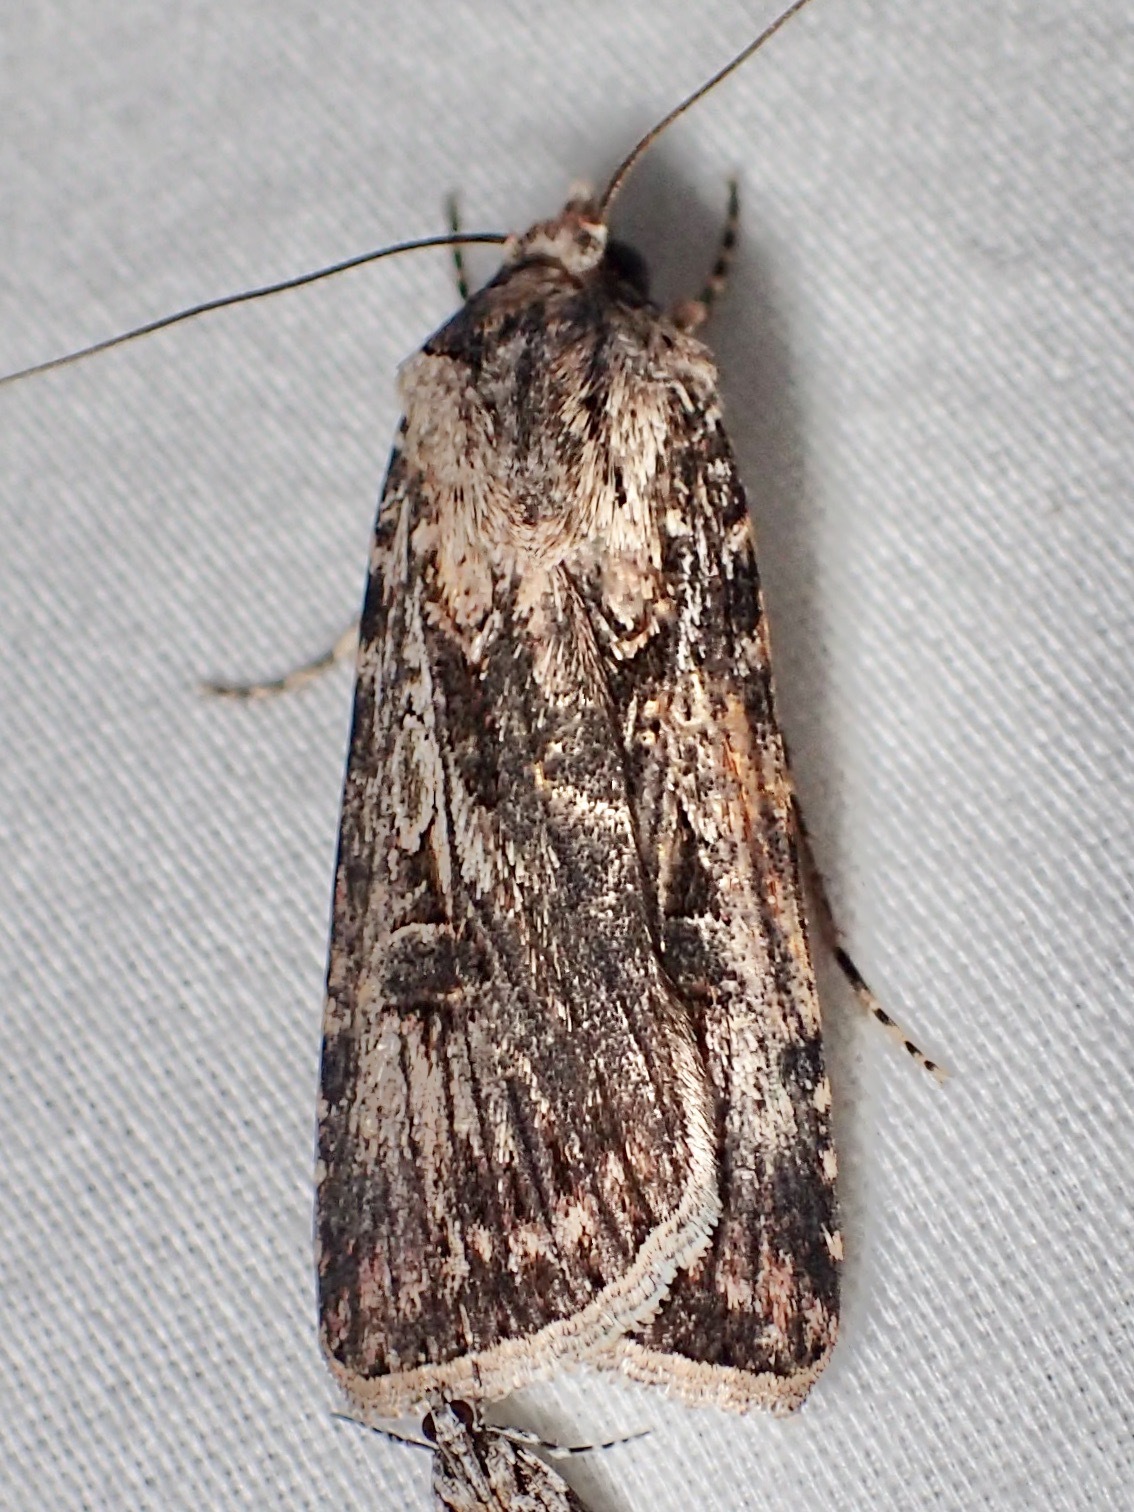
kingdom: Animalia
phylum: Arthropoda
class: Insecta
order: Lepidoptera
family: Noctuidae
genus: Agrotis
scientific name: Agrotis munda
